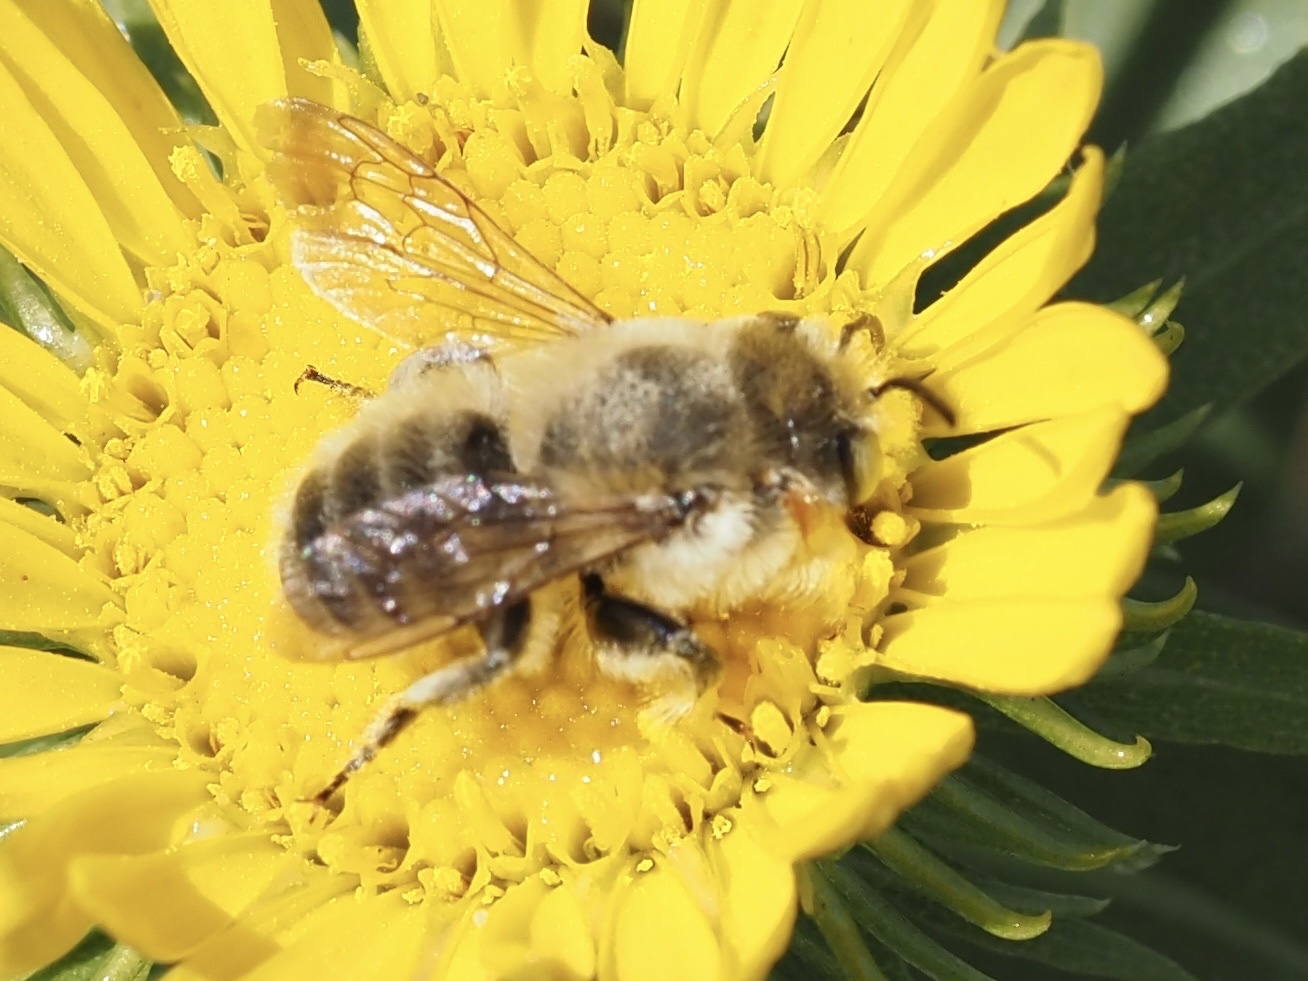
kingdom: Animalia
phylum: Arthropoda
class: Insecta
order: Hymenoptera
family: Megachilidae
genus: Megachile
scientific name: Megachile perihirta
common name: Western leafcutter
